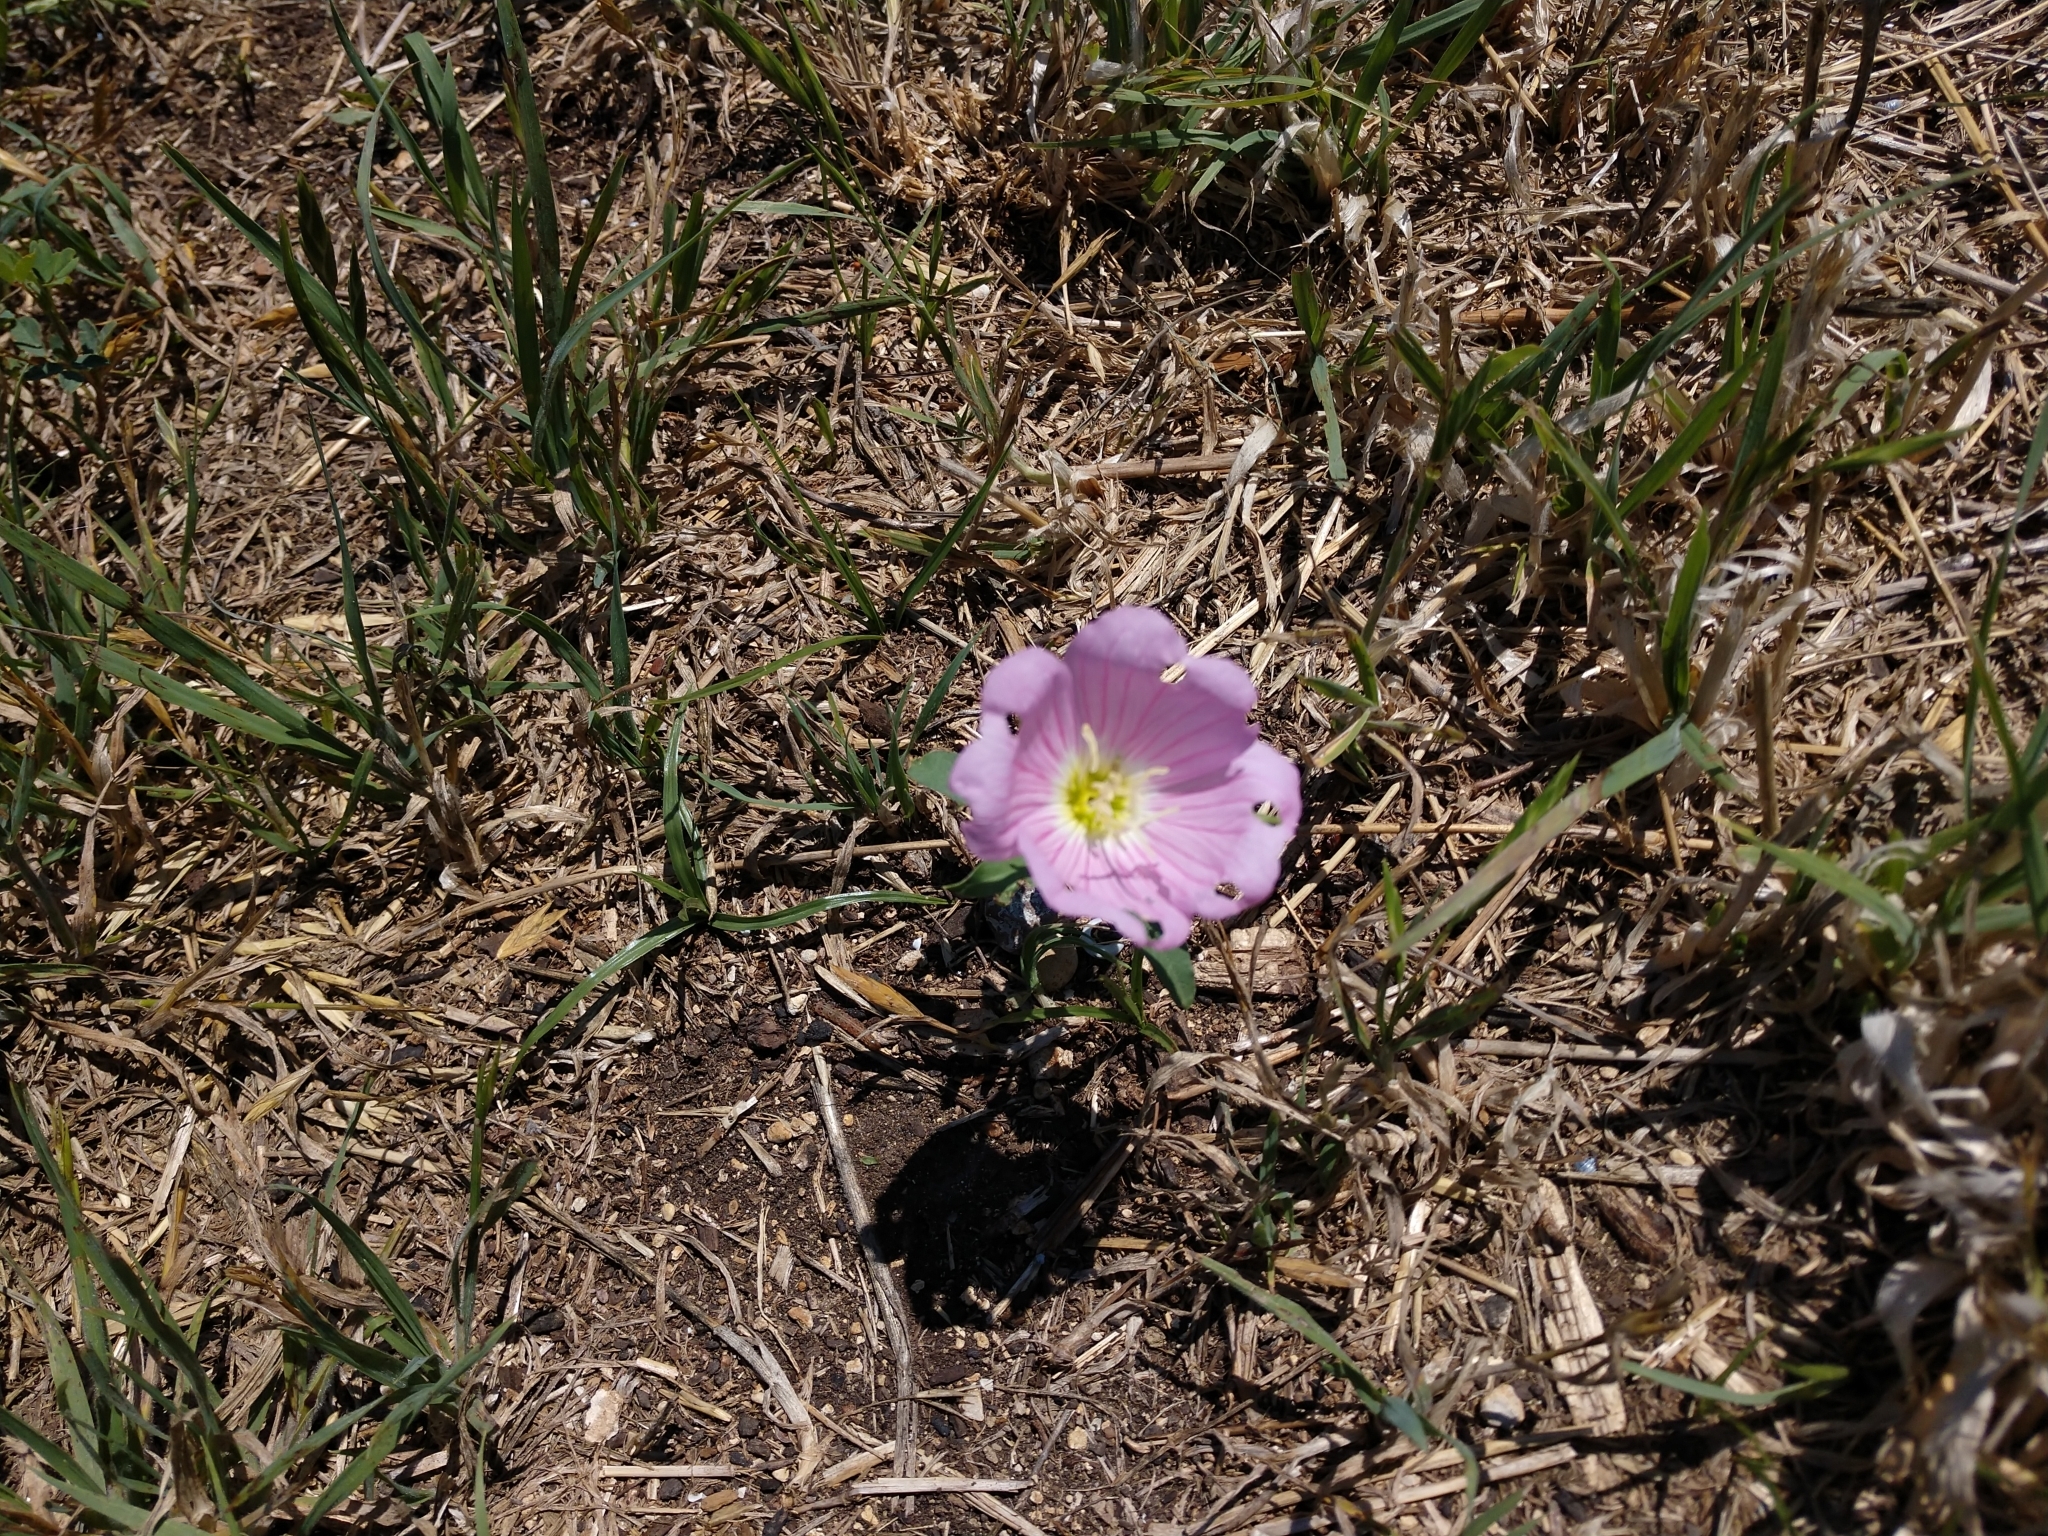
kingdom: Plantae
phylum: Tracheophyta
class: Magnoliopsida
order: Myrtales
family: Onagraceae
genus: Oenothera
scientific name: Oenothera speciosa
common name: White evening-primrose
